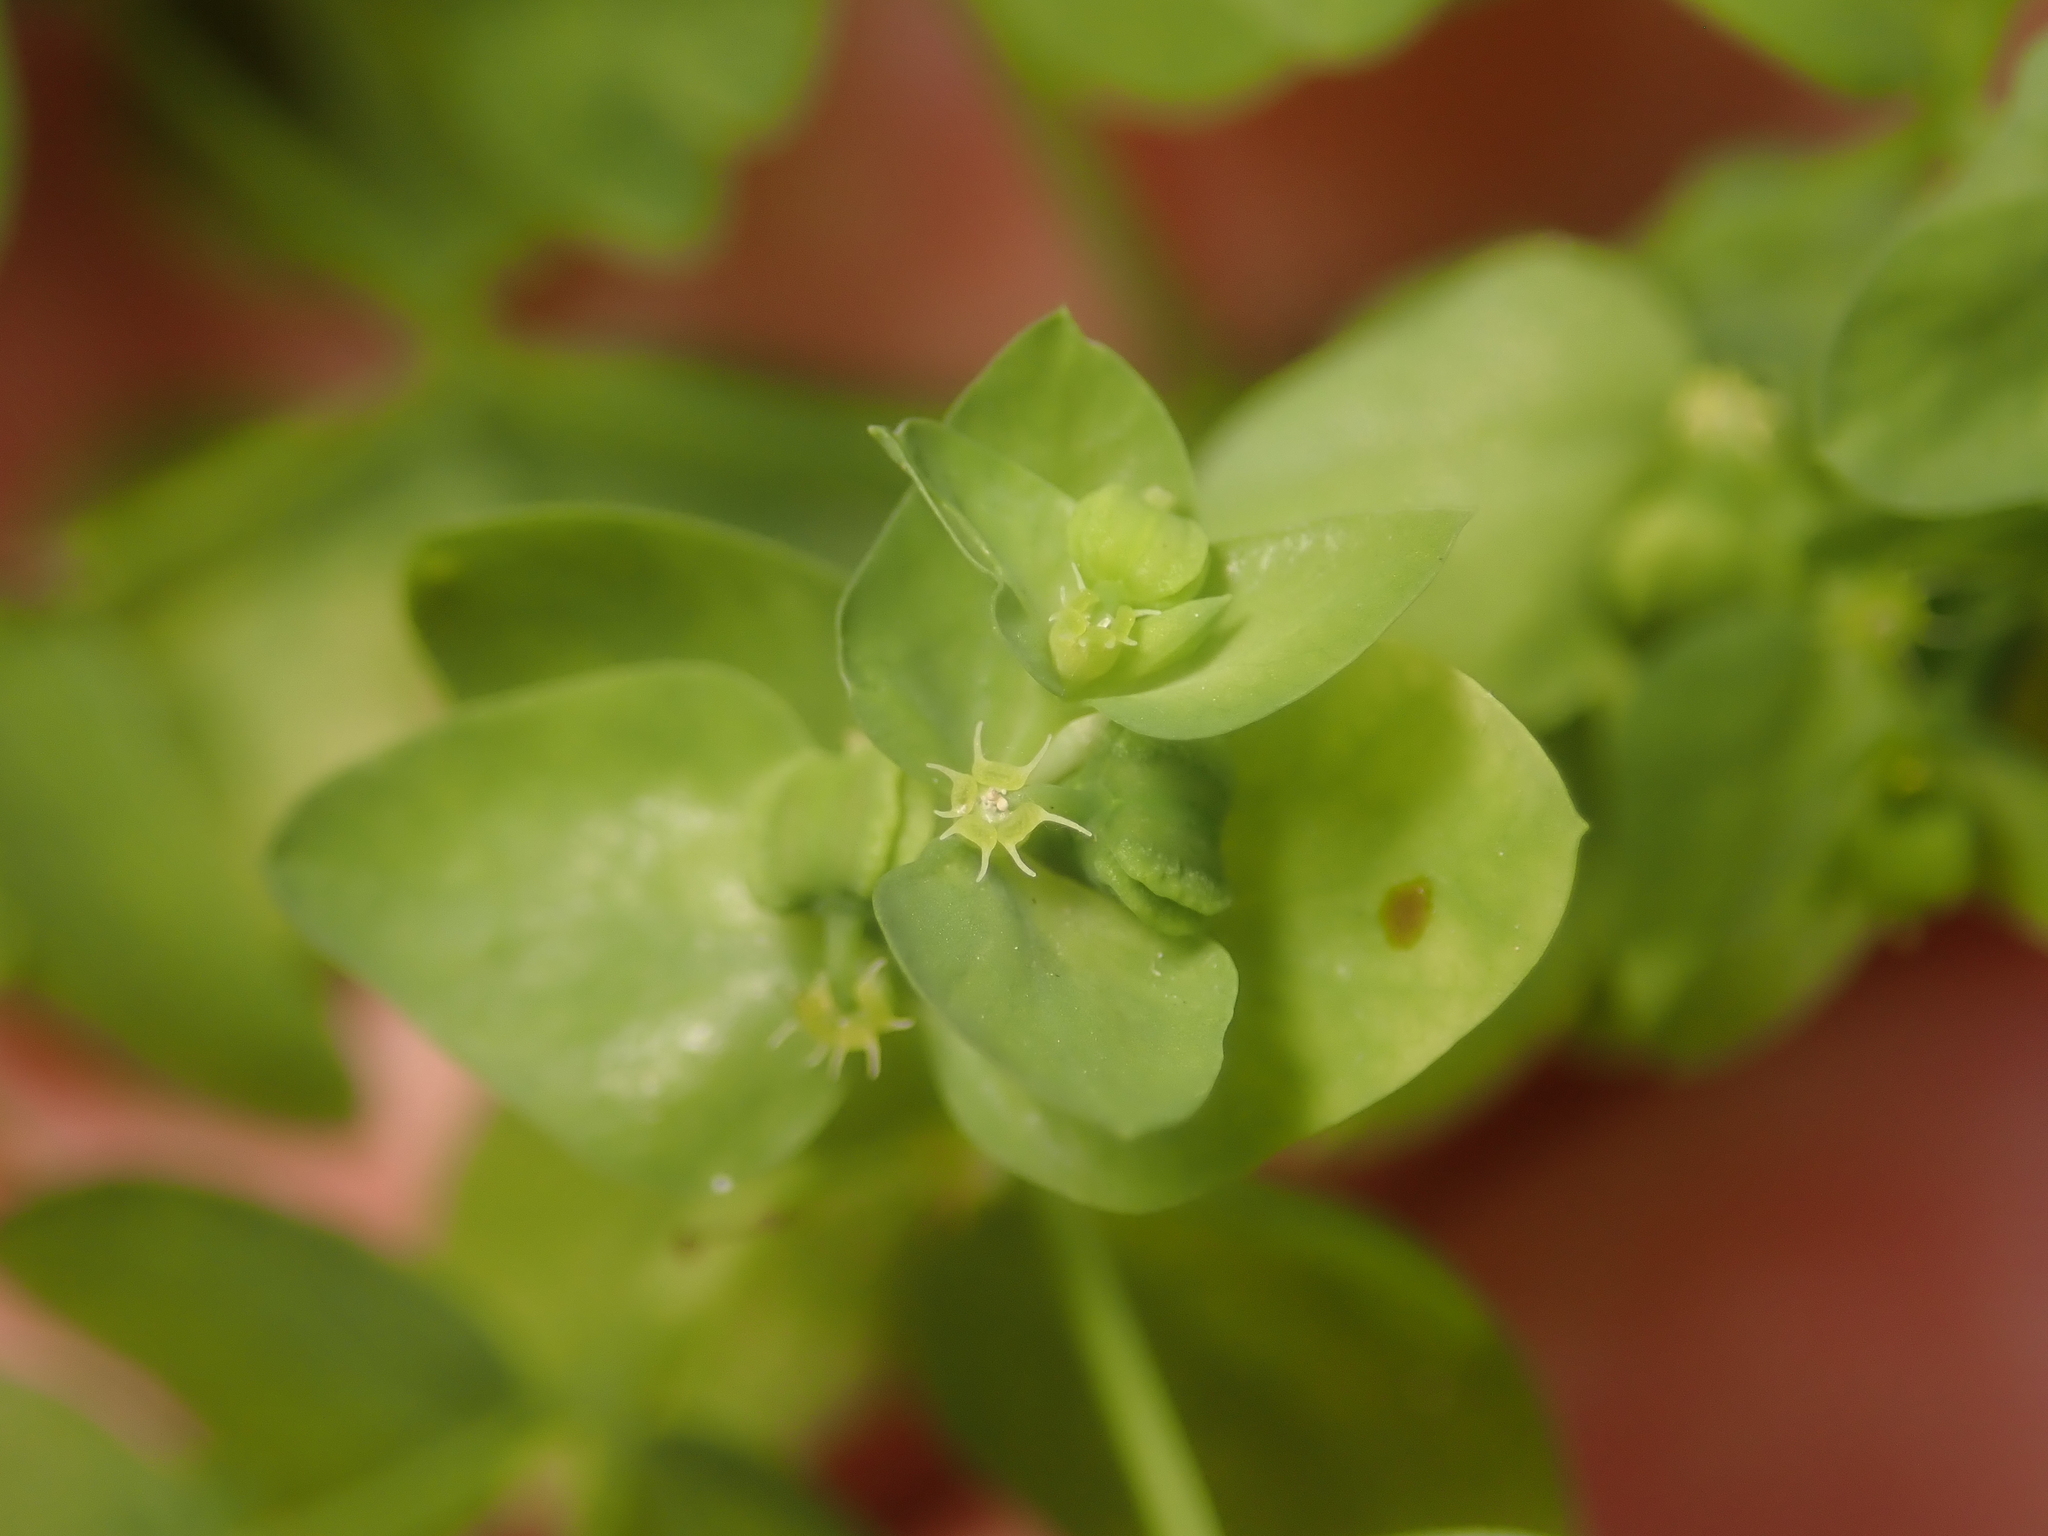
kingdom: Plantae
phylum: Tracheophyta
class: Magnoliopsida
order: Malpighiales
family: Euphorbiaceae
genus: Euphorbia
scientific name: Euphorbia peplus
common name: Petty spurge
